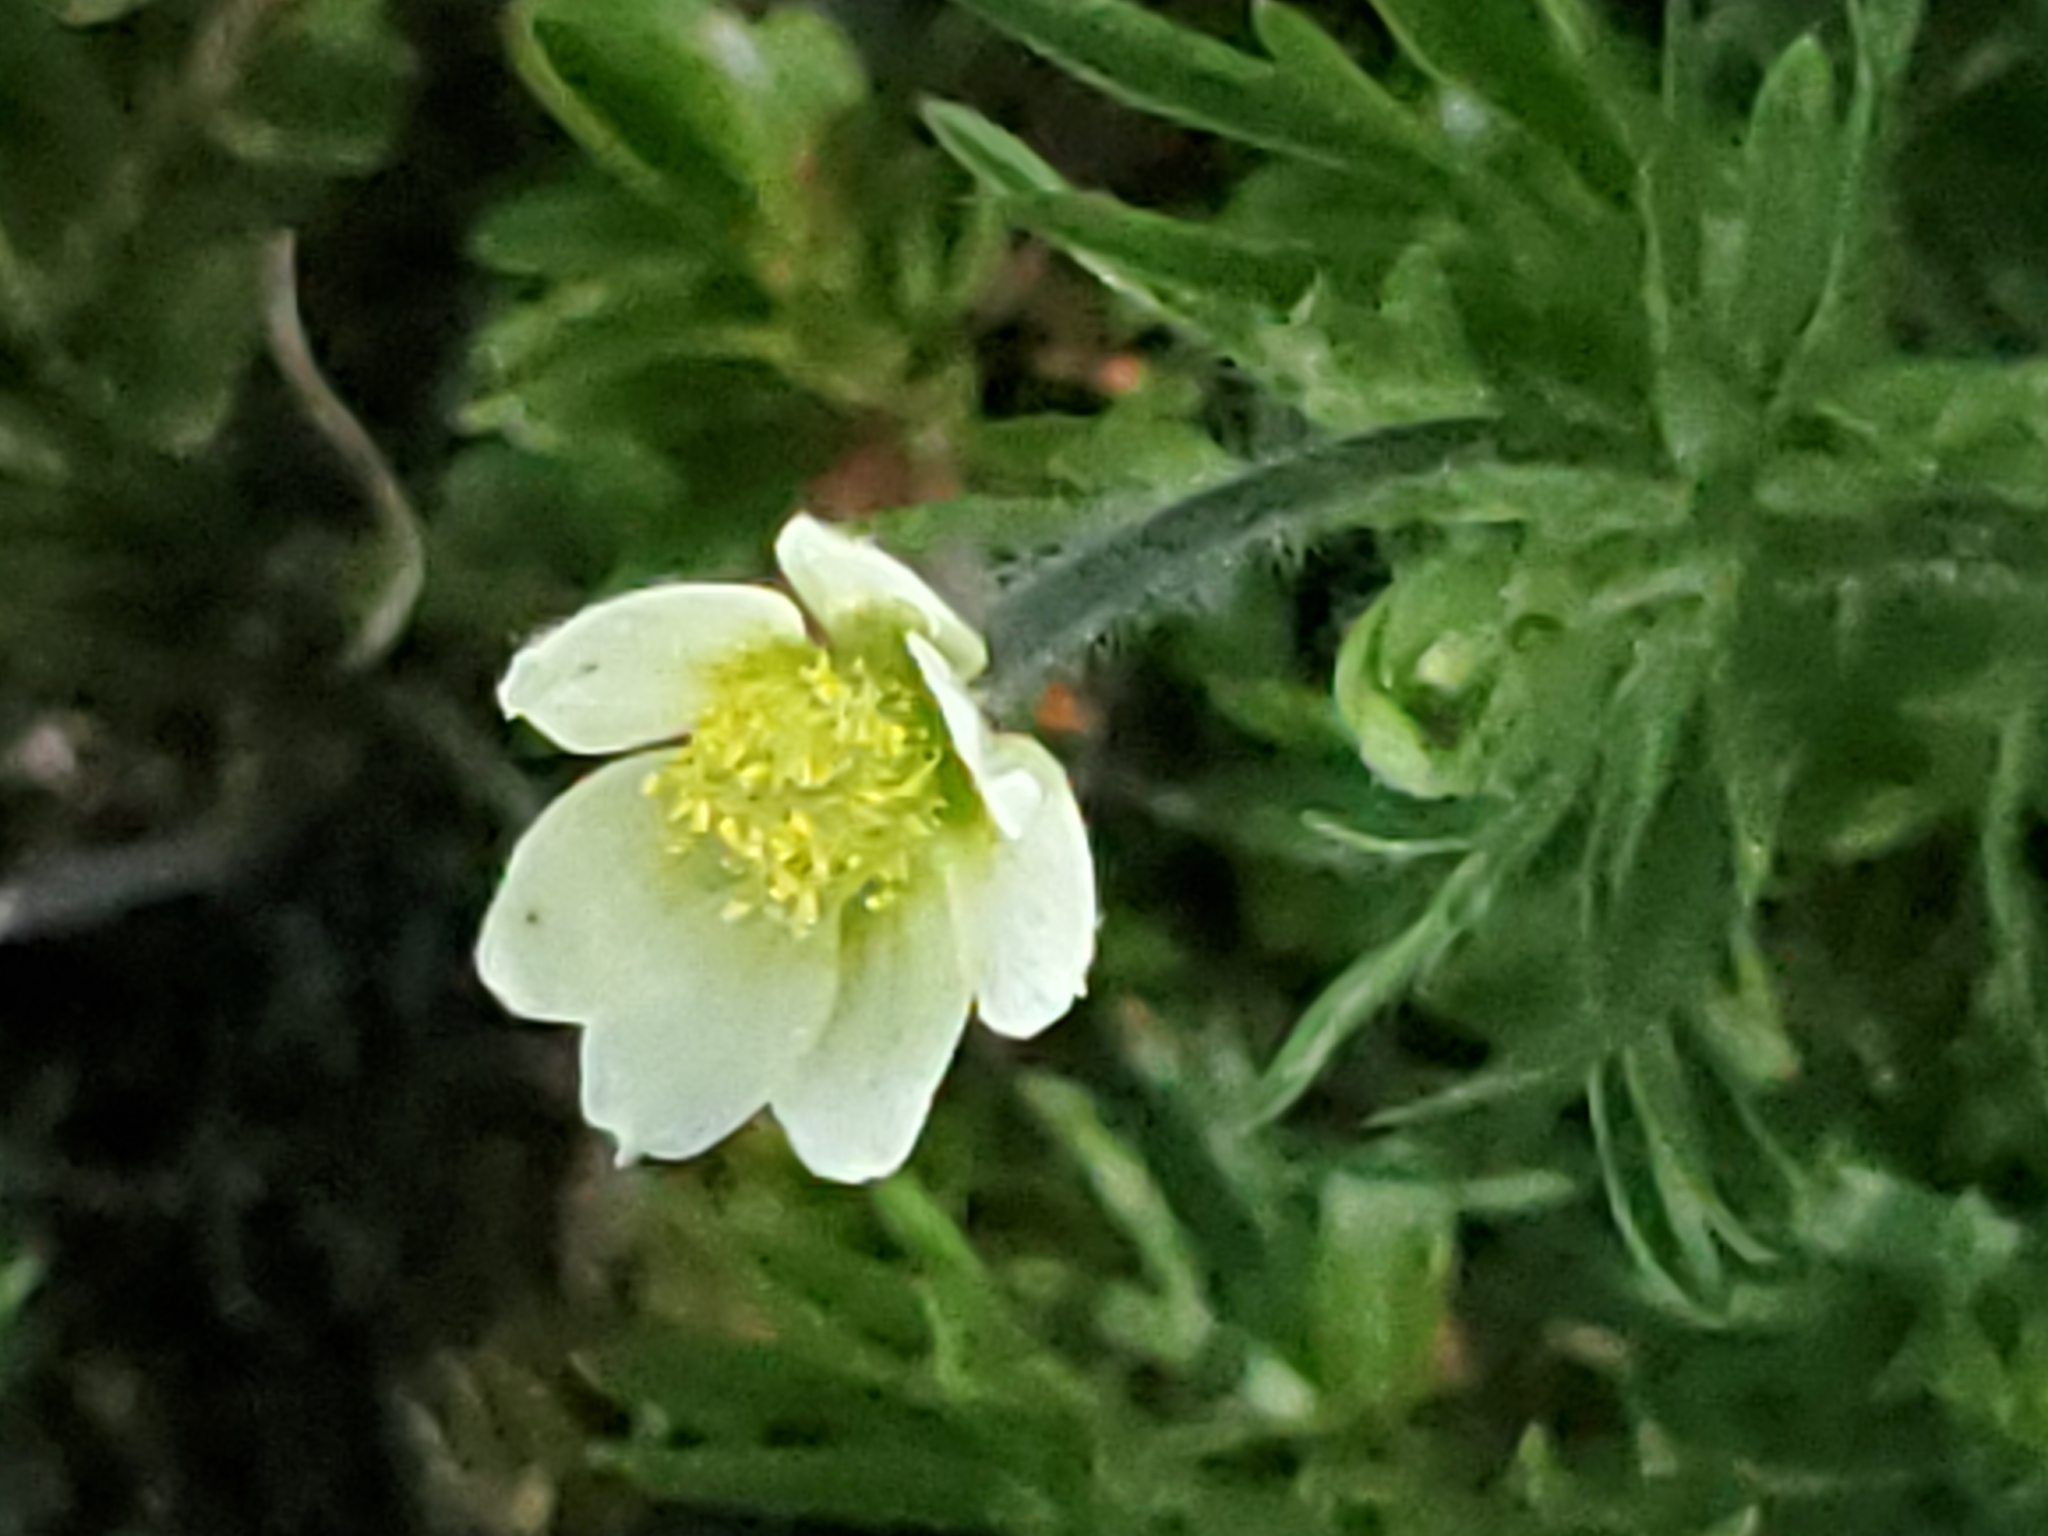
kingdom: Plantae
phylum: Tracheophyta
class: Magnoliopsida
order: Ranunculales
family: Ranunculaceae
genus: Anemone
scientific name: Anemone multifida
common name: Bird's-foot anemone
